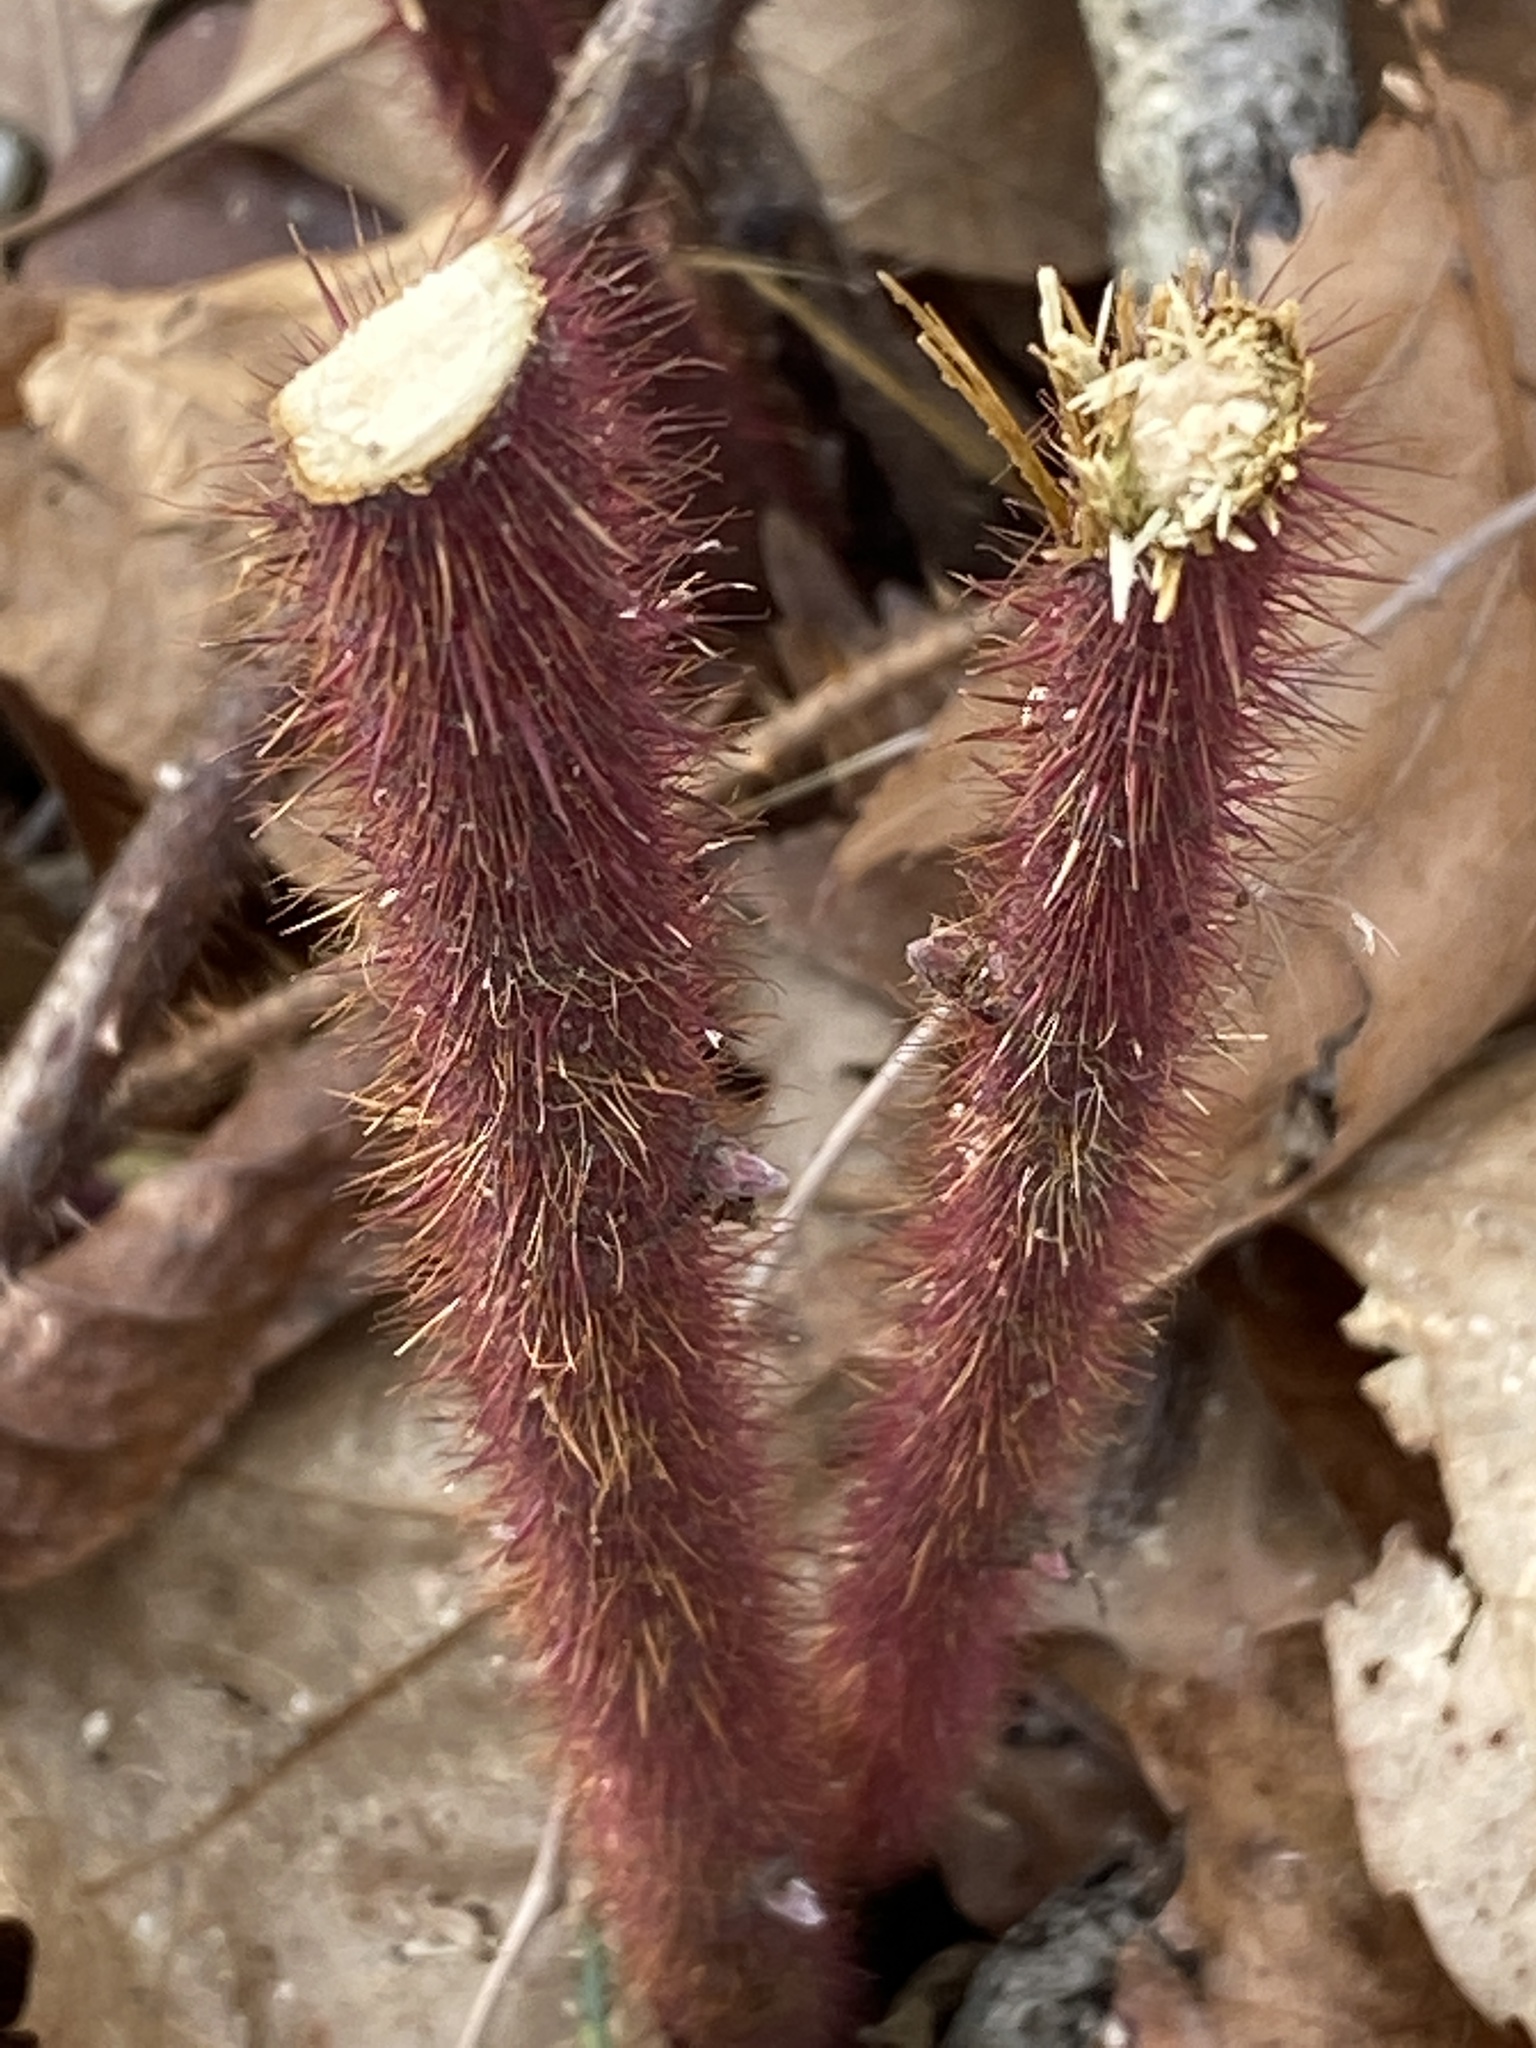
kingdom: Plantae
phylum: Tracheophyta
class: Magnoliopsida
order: Rosales
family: Rosaceae
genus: Rubus
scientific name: Rubus phoenicolasius
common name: Japanese wineberry
